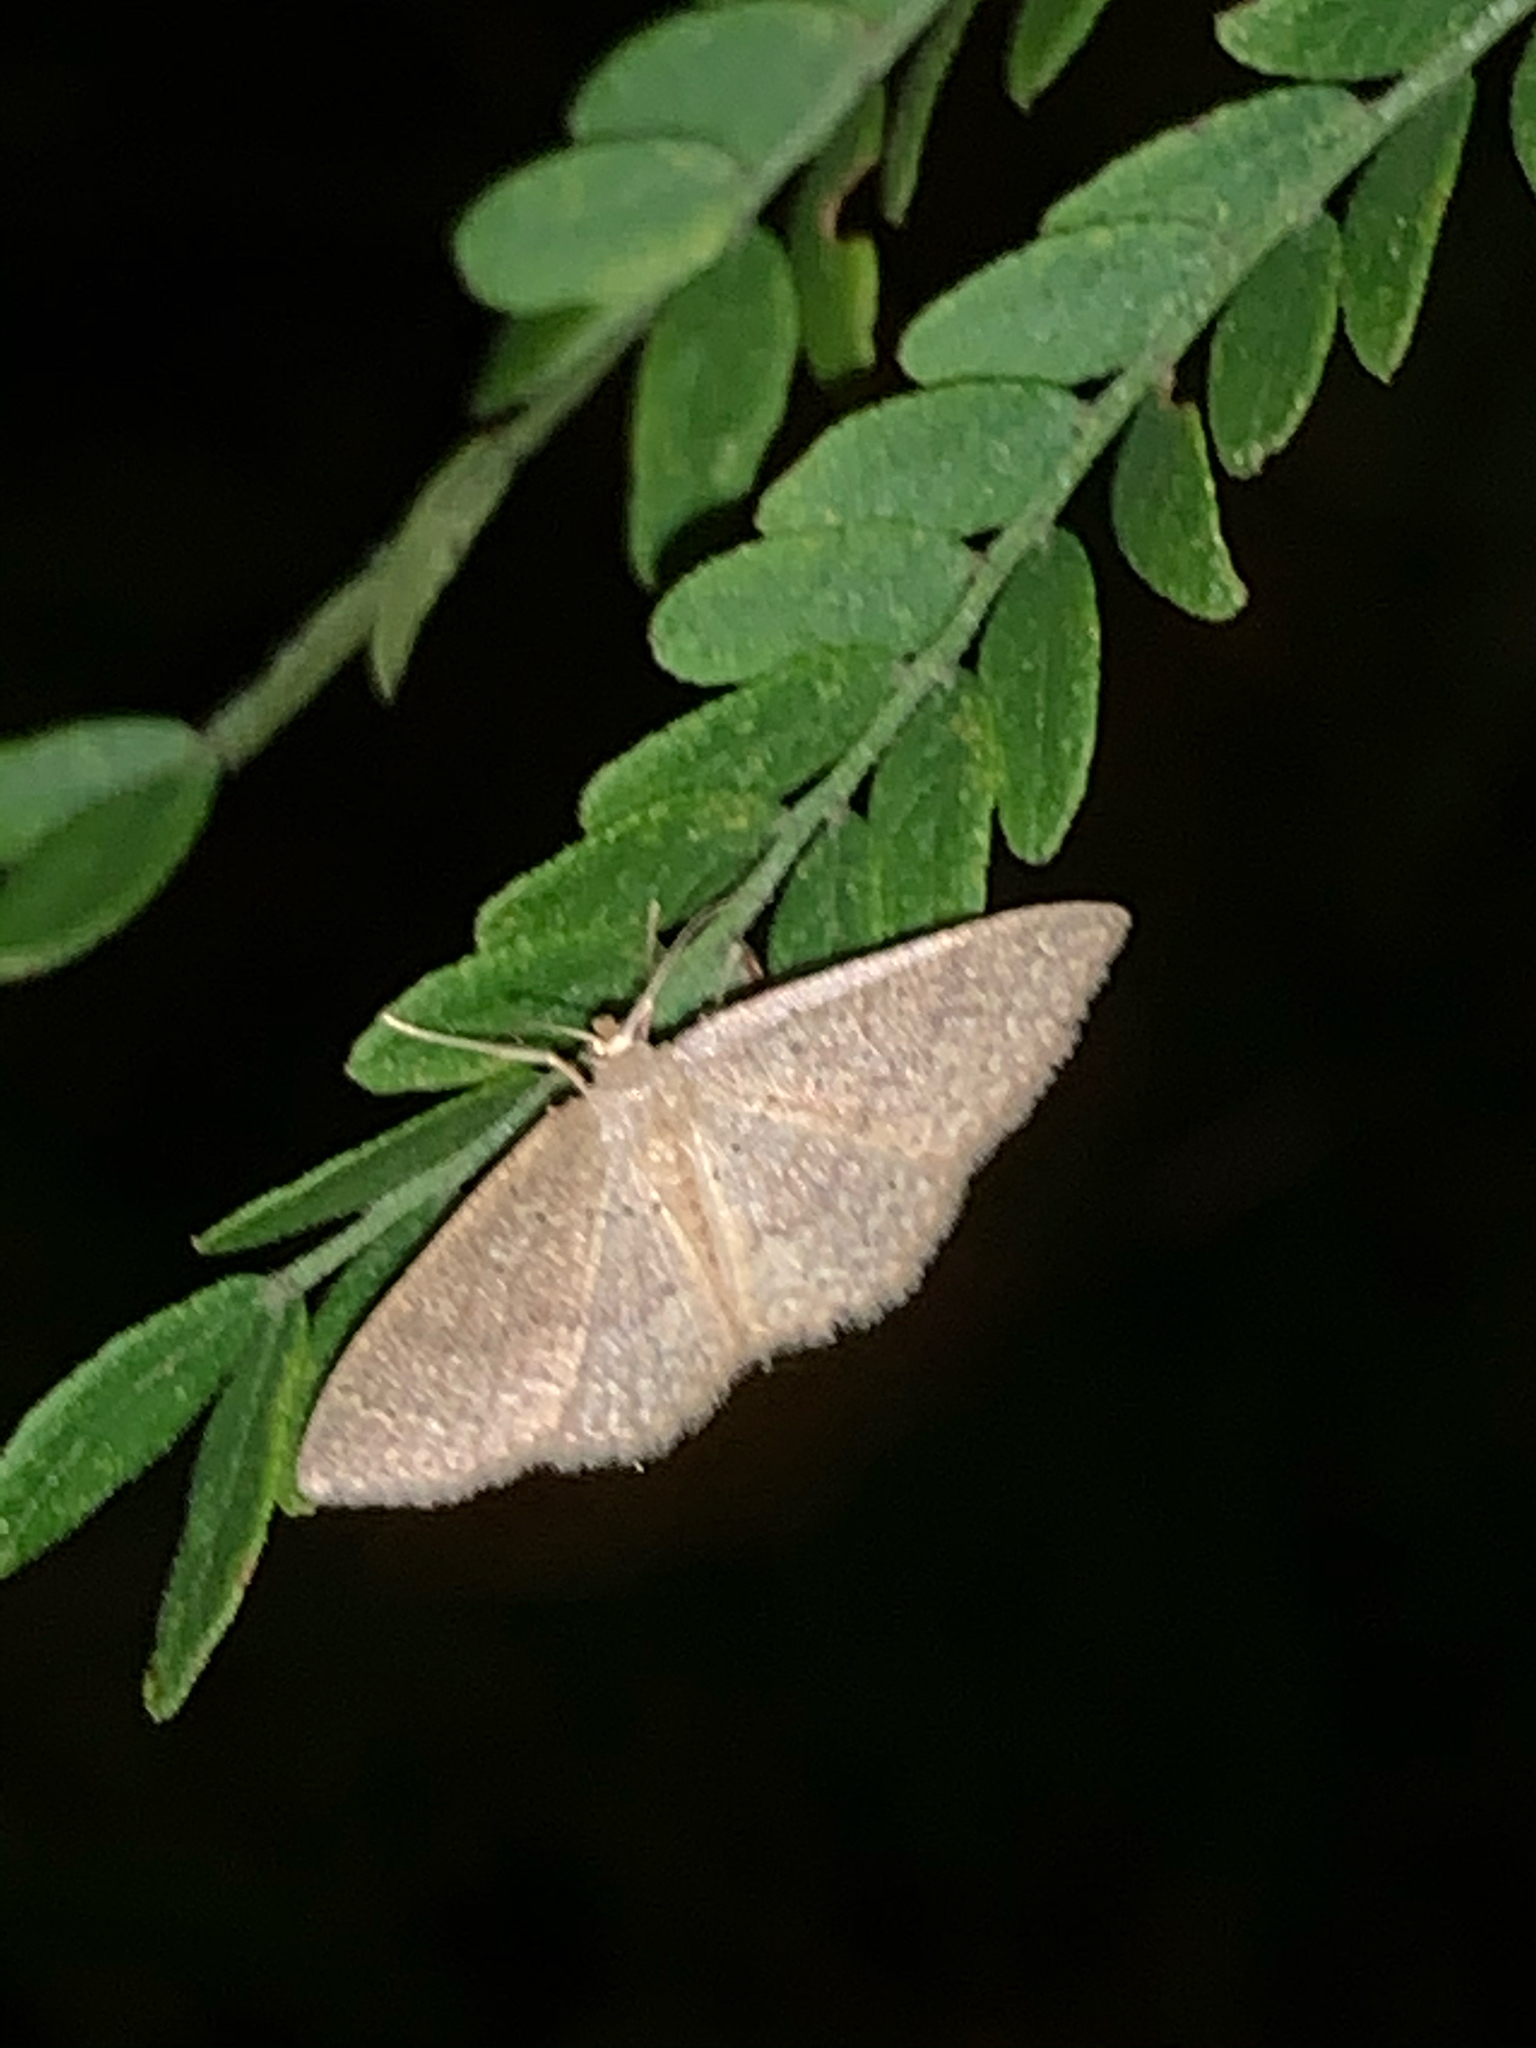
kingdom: Animalia
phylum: Arthropoda
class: Insecta
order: Lepidoptera
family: Geometridae
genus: Pleuroprucha
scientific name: Pleuroprucha insulsaria
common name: Common tan wave
